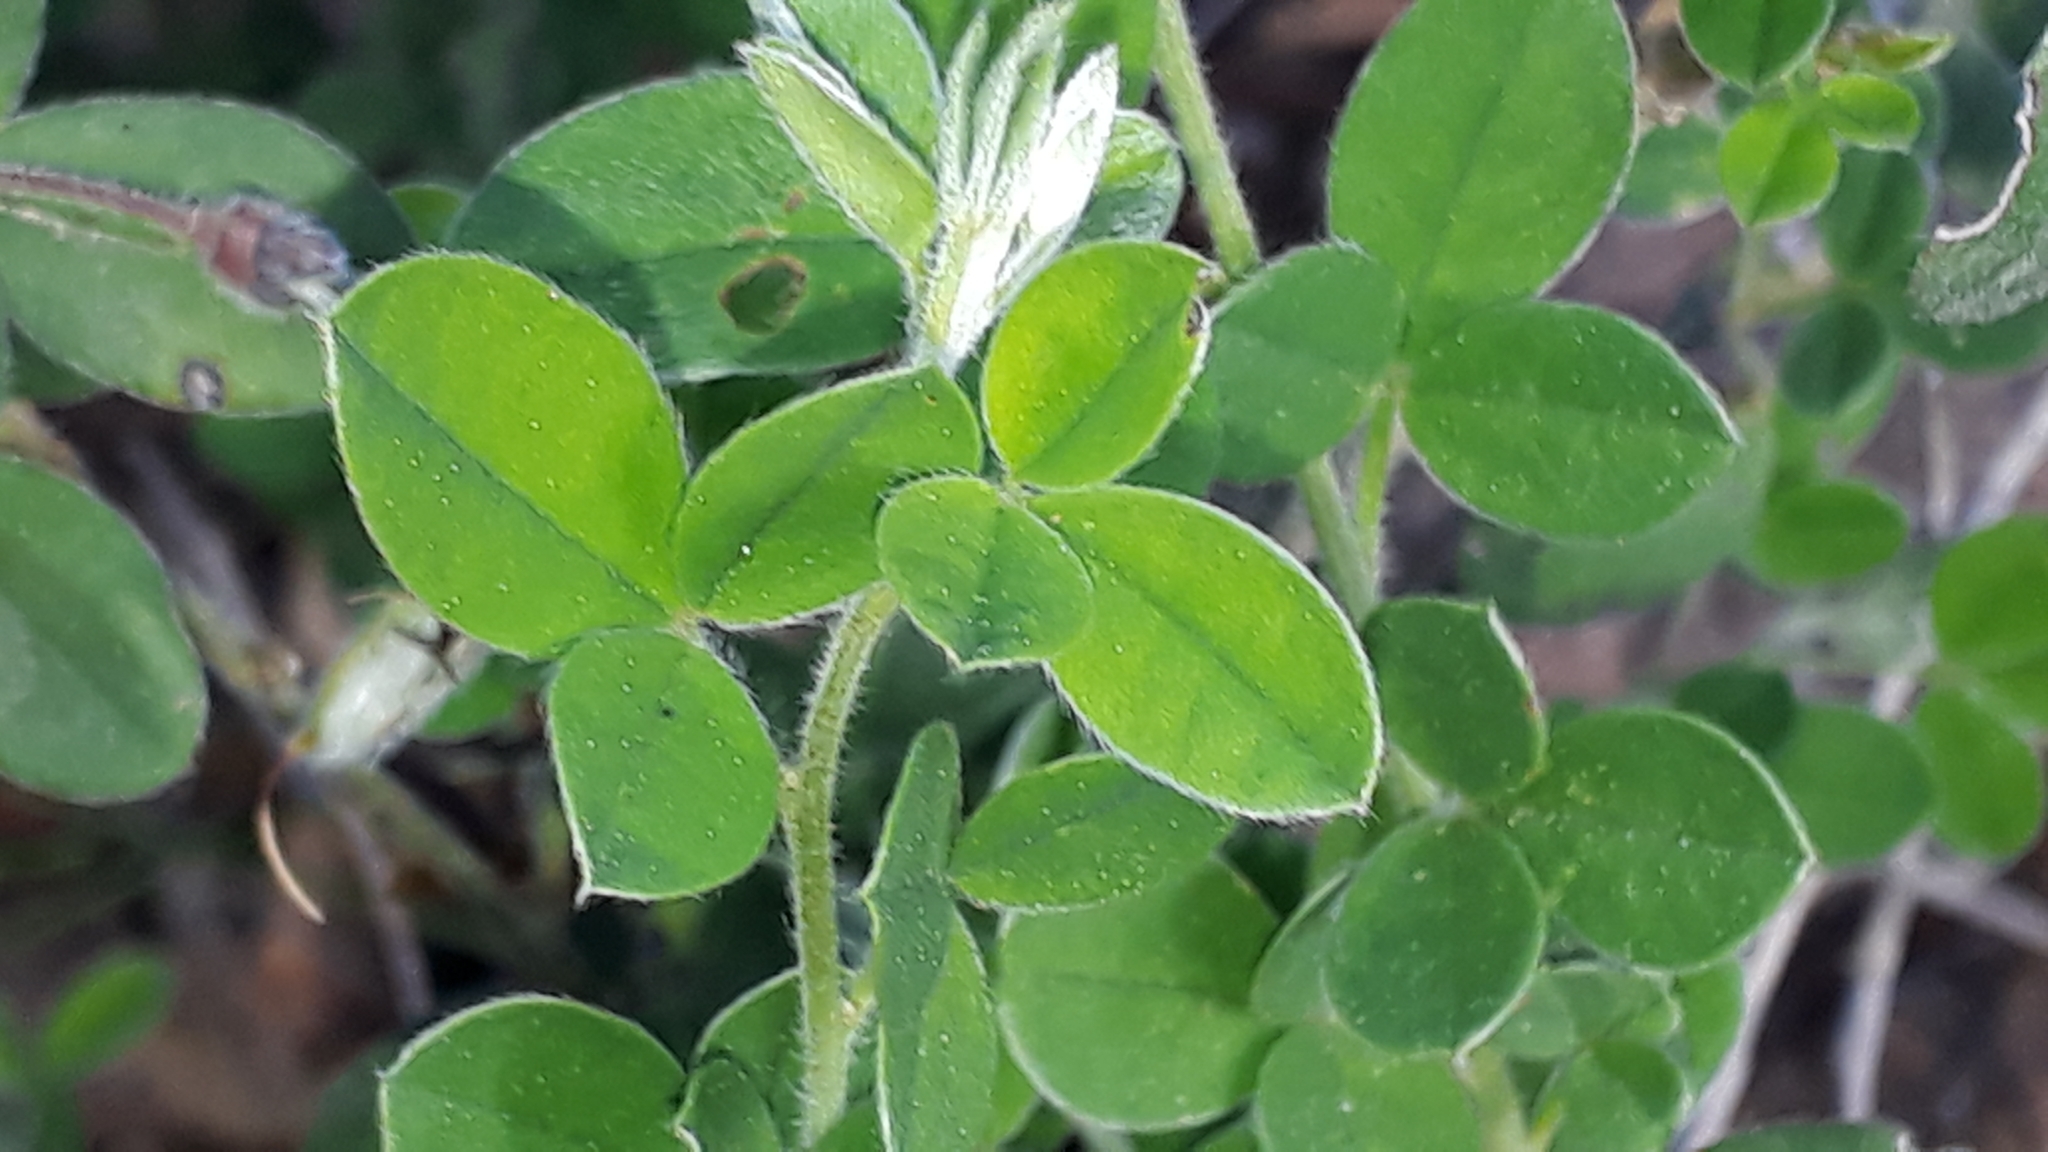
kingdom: Plantae
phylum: Tracheophyta
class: Magnoliopsida
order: Fabales
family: Fabaceae
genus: Cytisus
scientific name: Cytisus villosus
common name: Hairybroom
